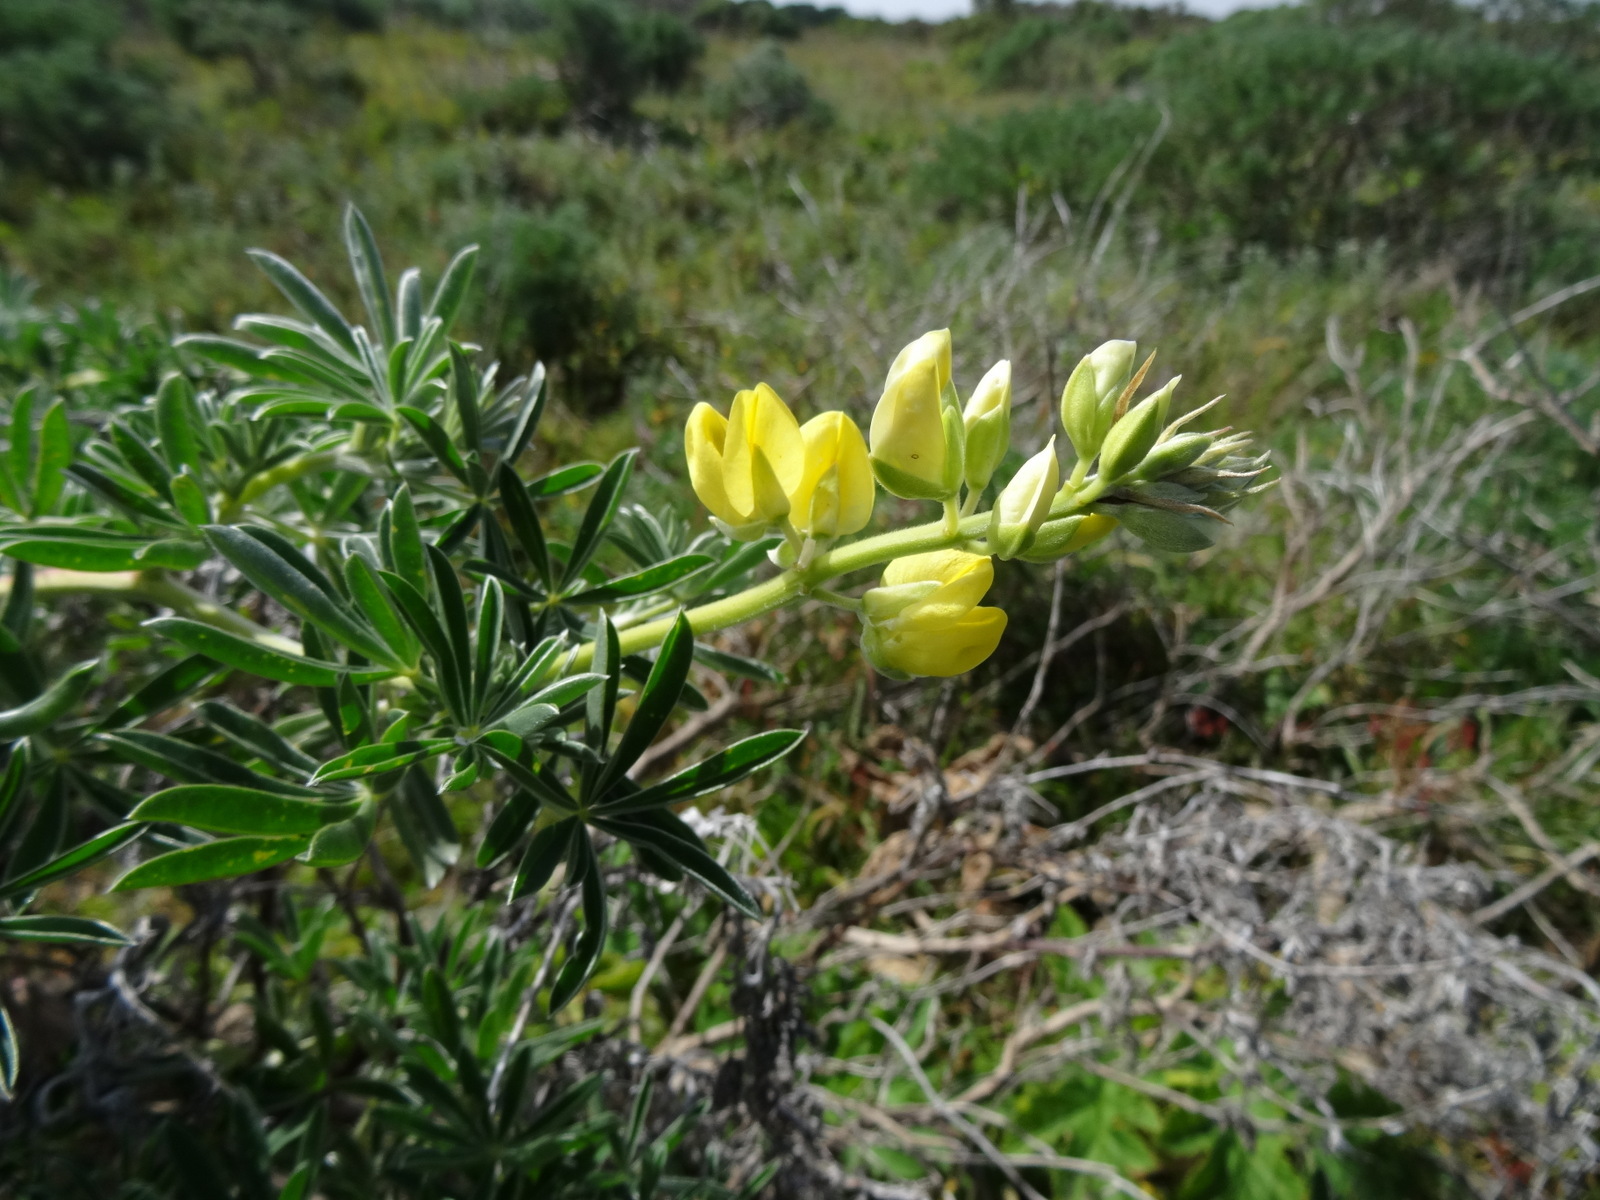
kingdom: Plantae
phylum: Tracheophyta
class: Magnoliopsida
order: Fabales
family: Fabaceae
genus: Lupinus
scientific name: Lupinus arboreus
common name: Yellow bush lupine
